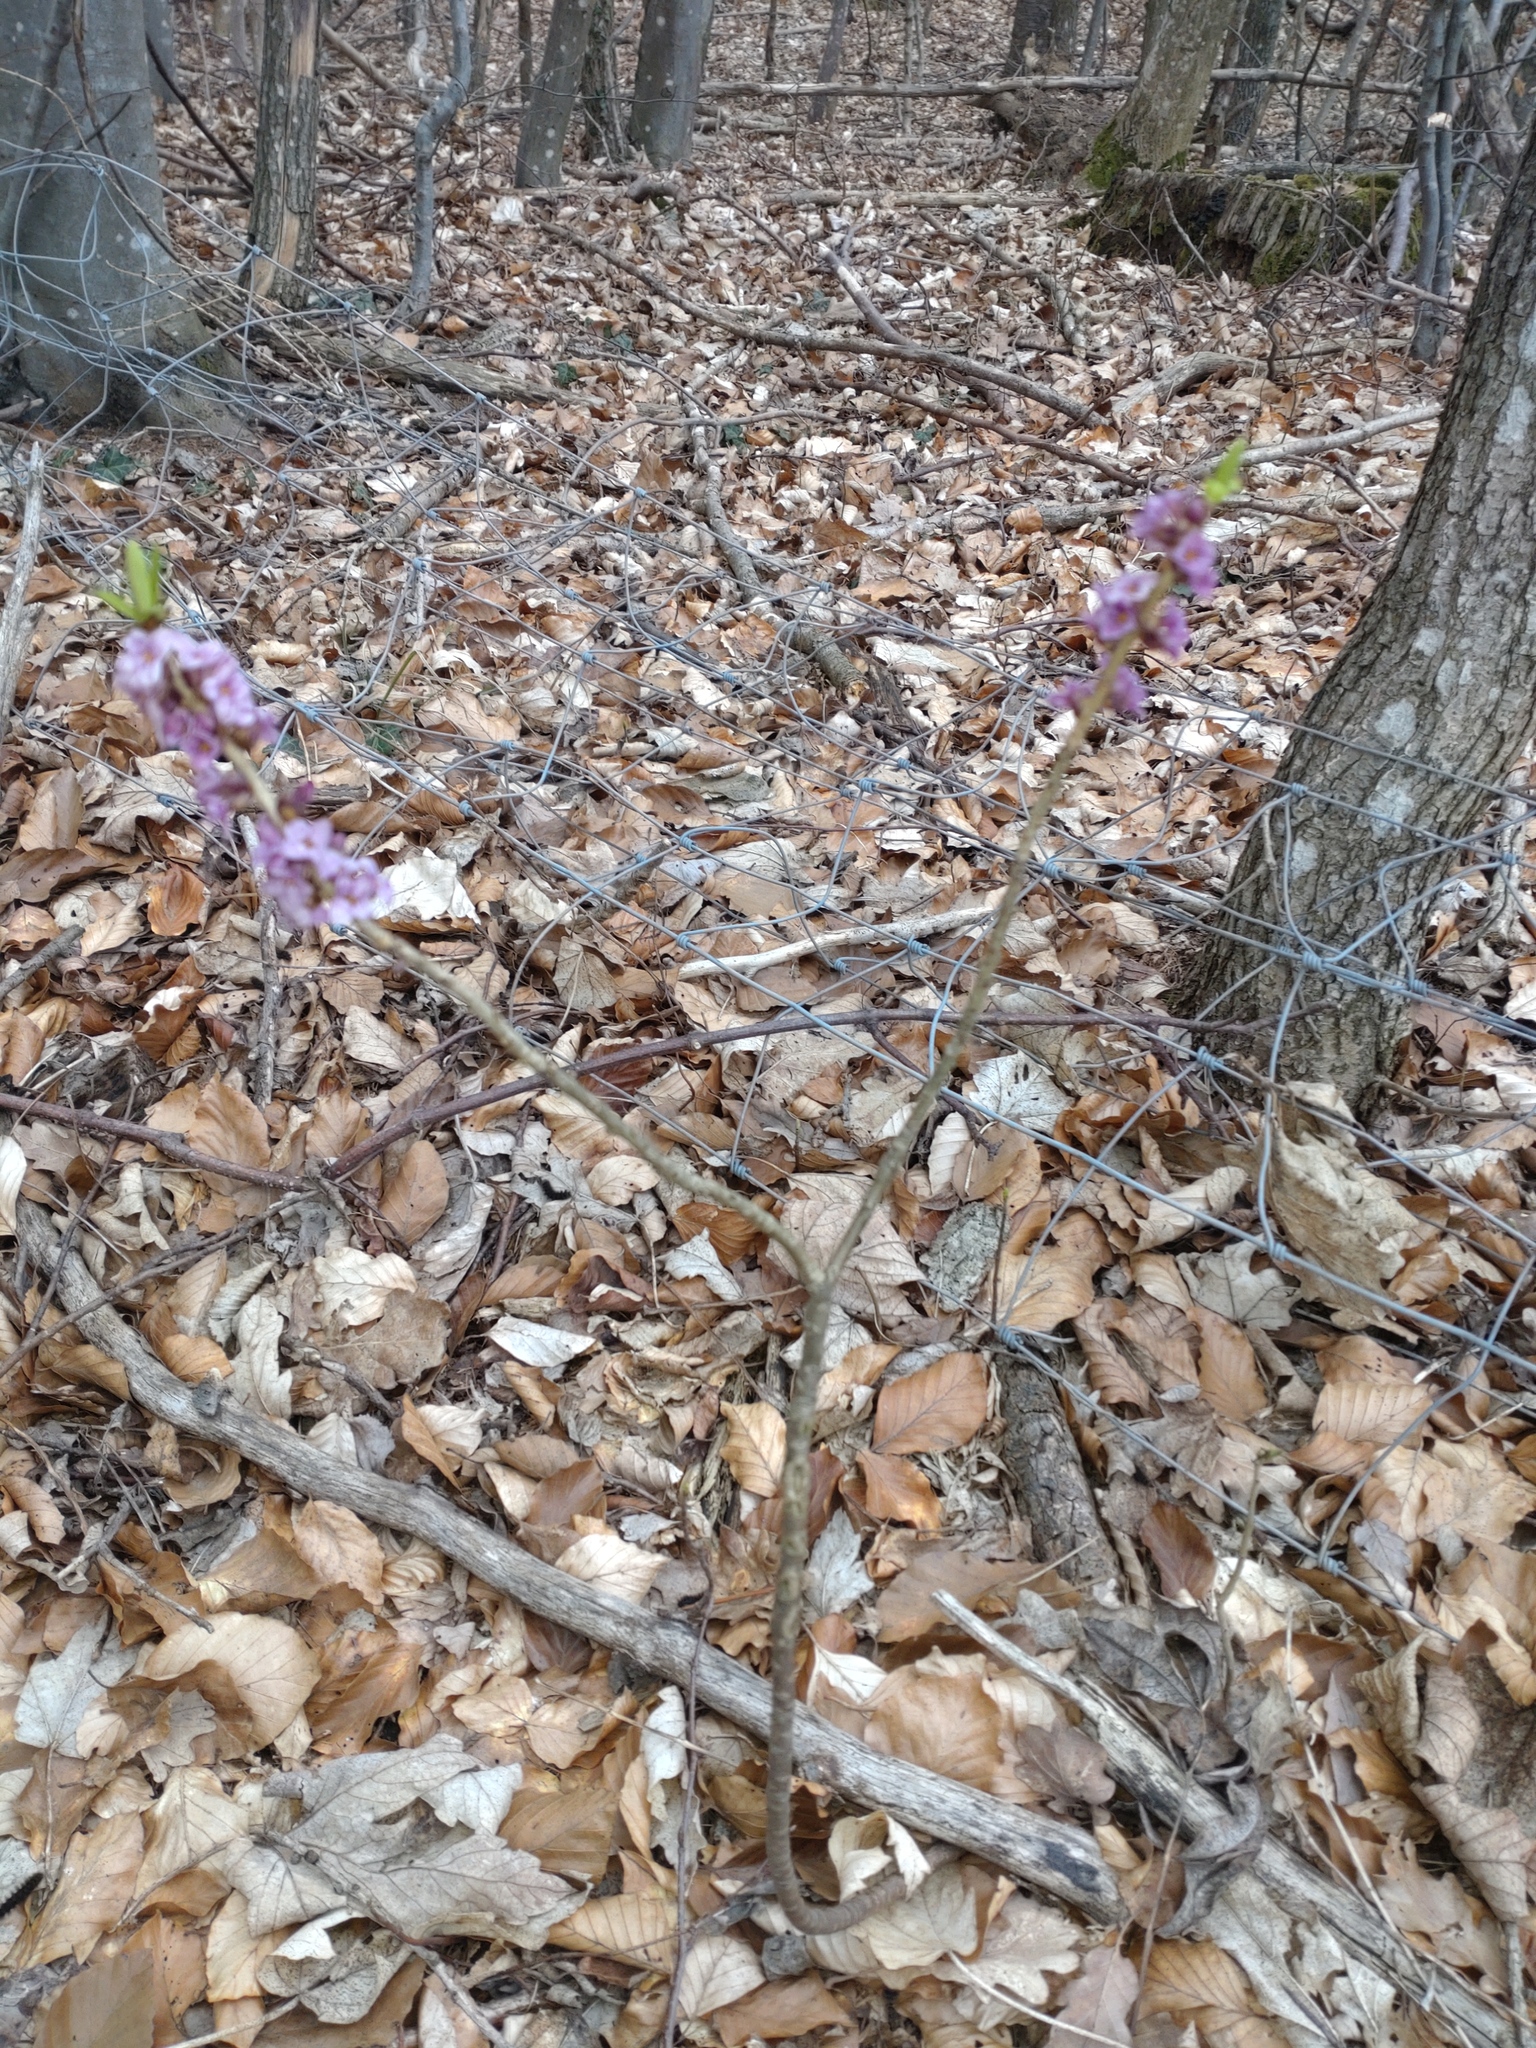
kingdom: Plantae
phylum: Tracheophyta
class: Magnoliopsida
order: Malvales
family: Thymelaeaceae
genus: Daphne
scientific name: Daphne mezereum
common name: Mezereon
